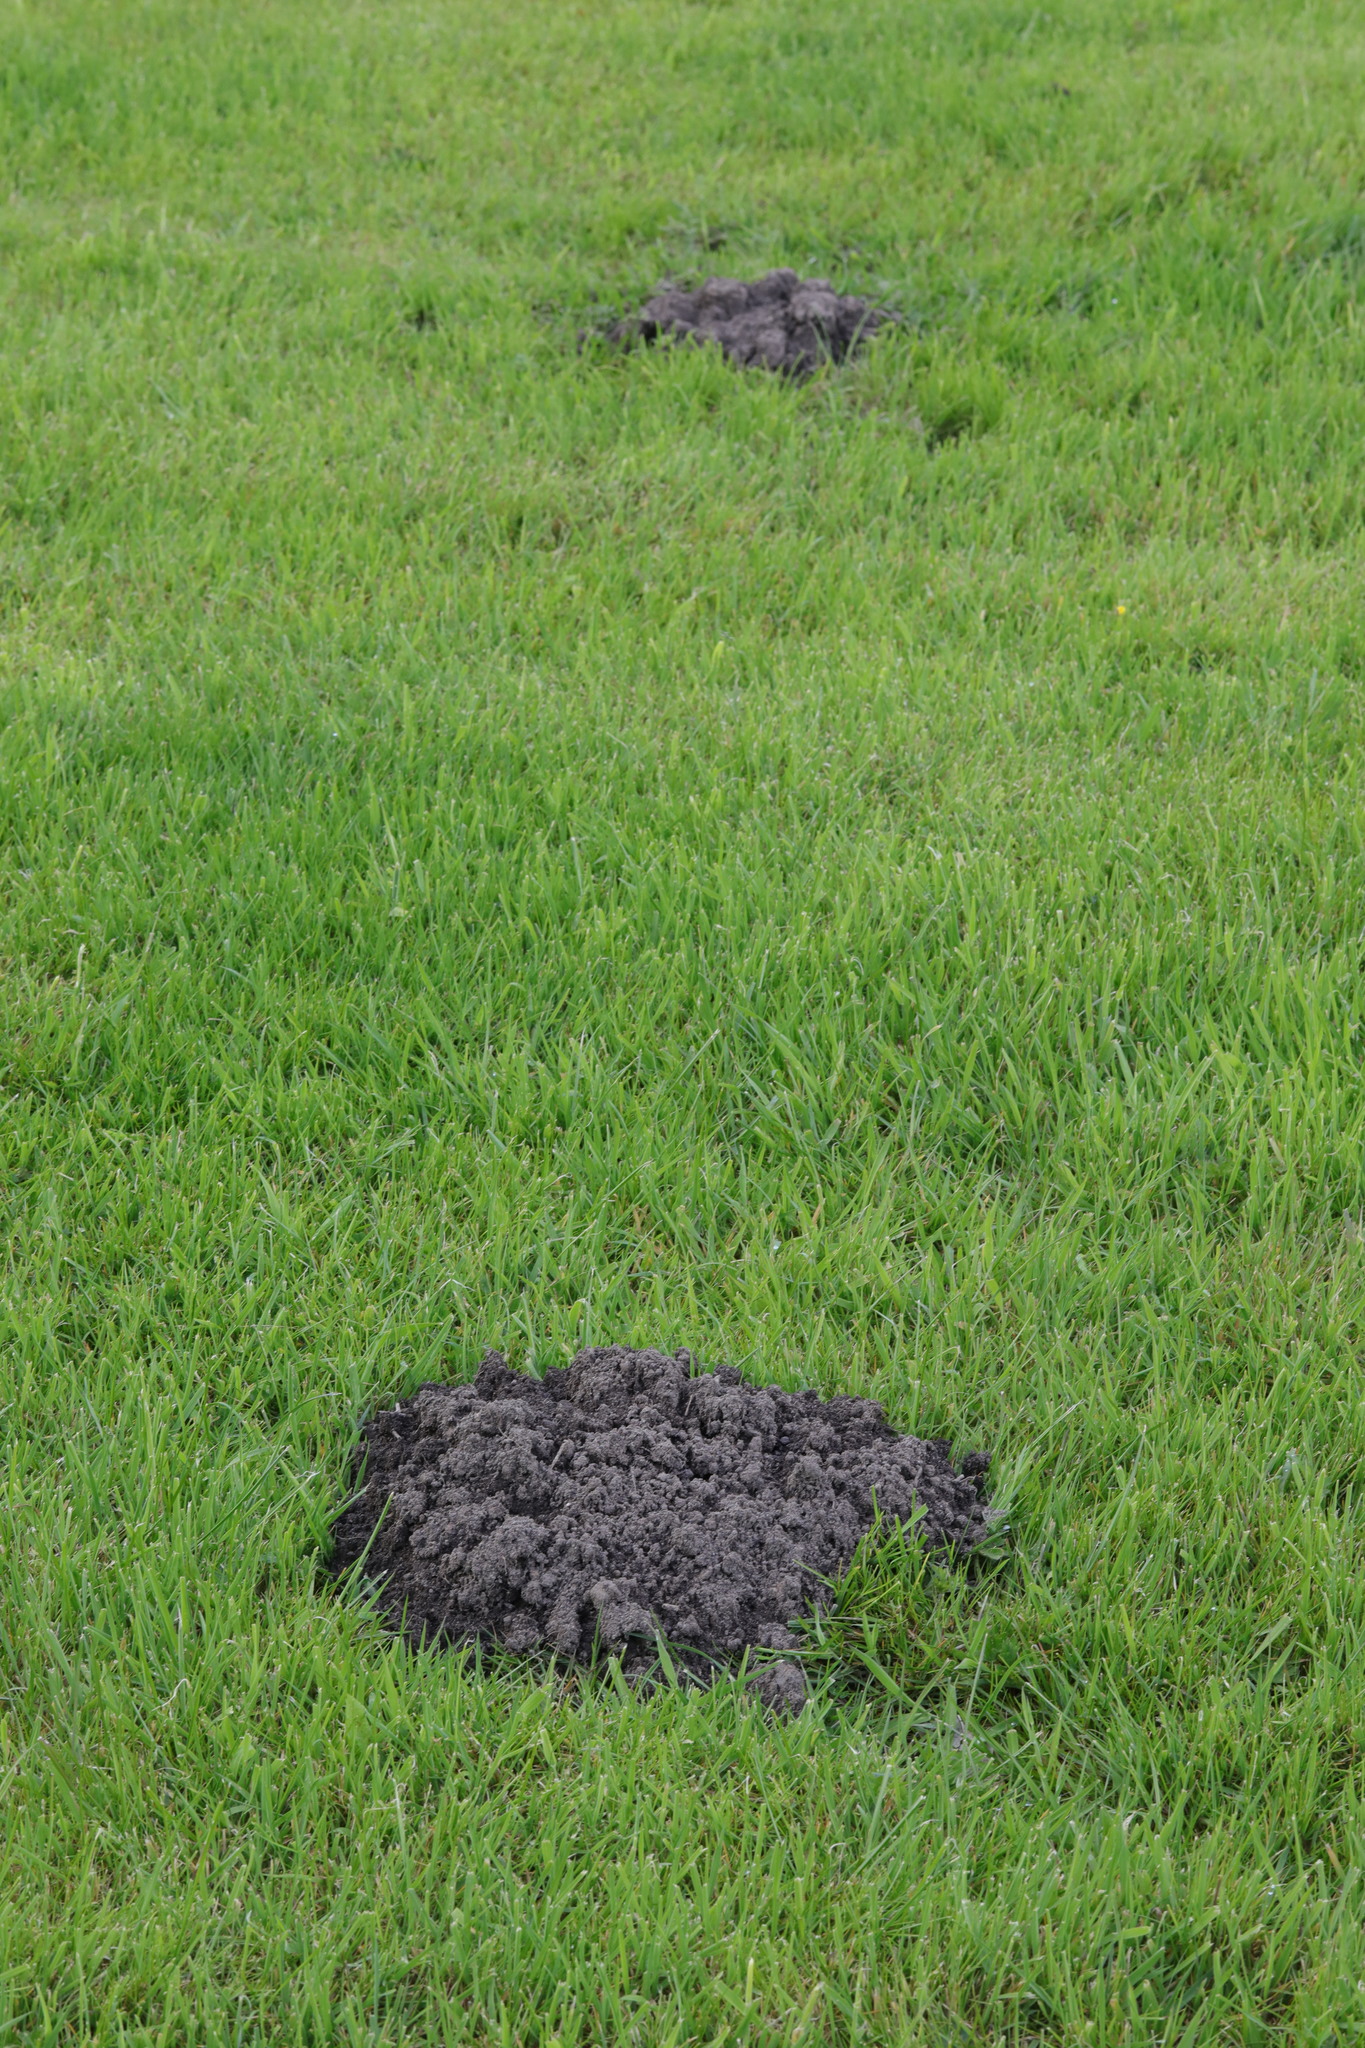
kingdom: Animalia
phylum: Chordata
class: Mammalia
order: Soricomorpha
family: Talpidae
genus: Talpa
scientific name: Talpa europaea
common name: European mole
